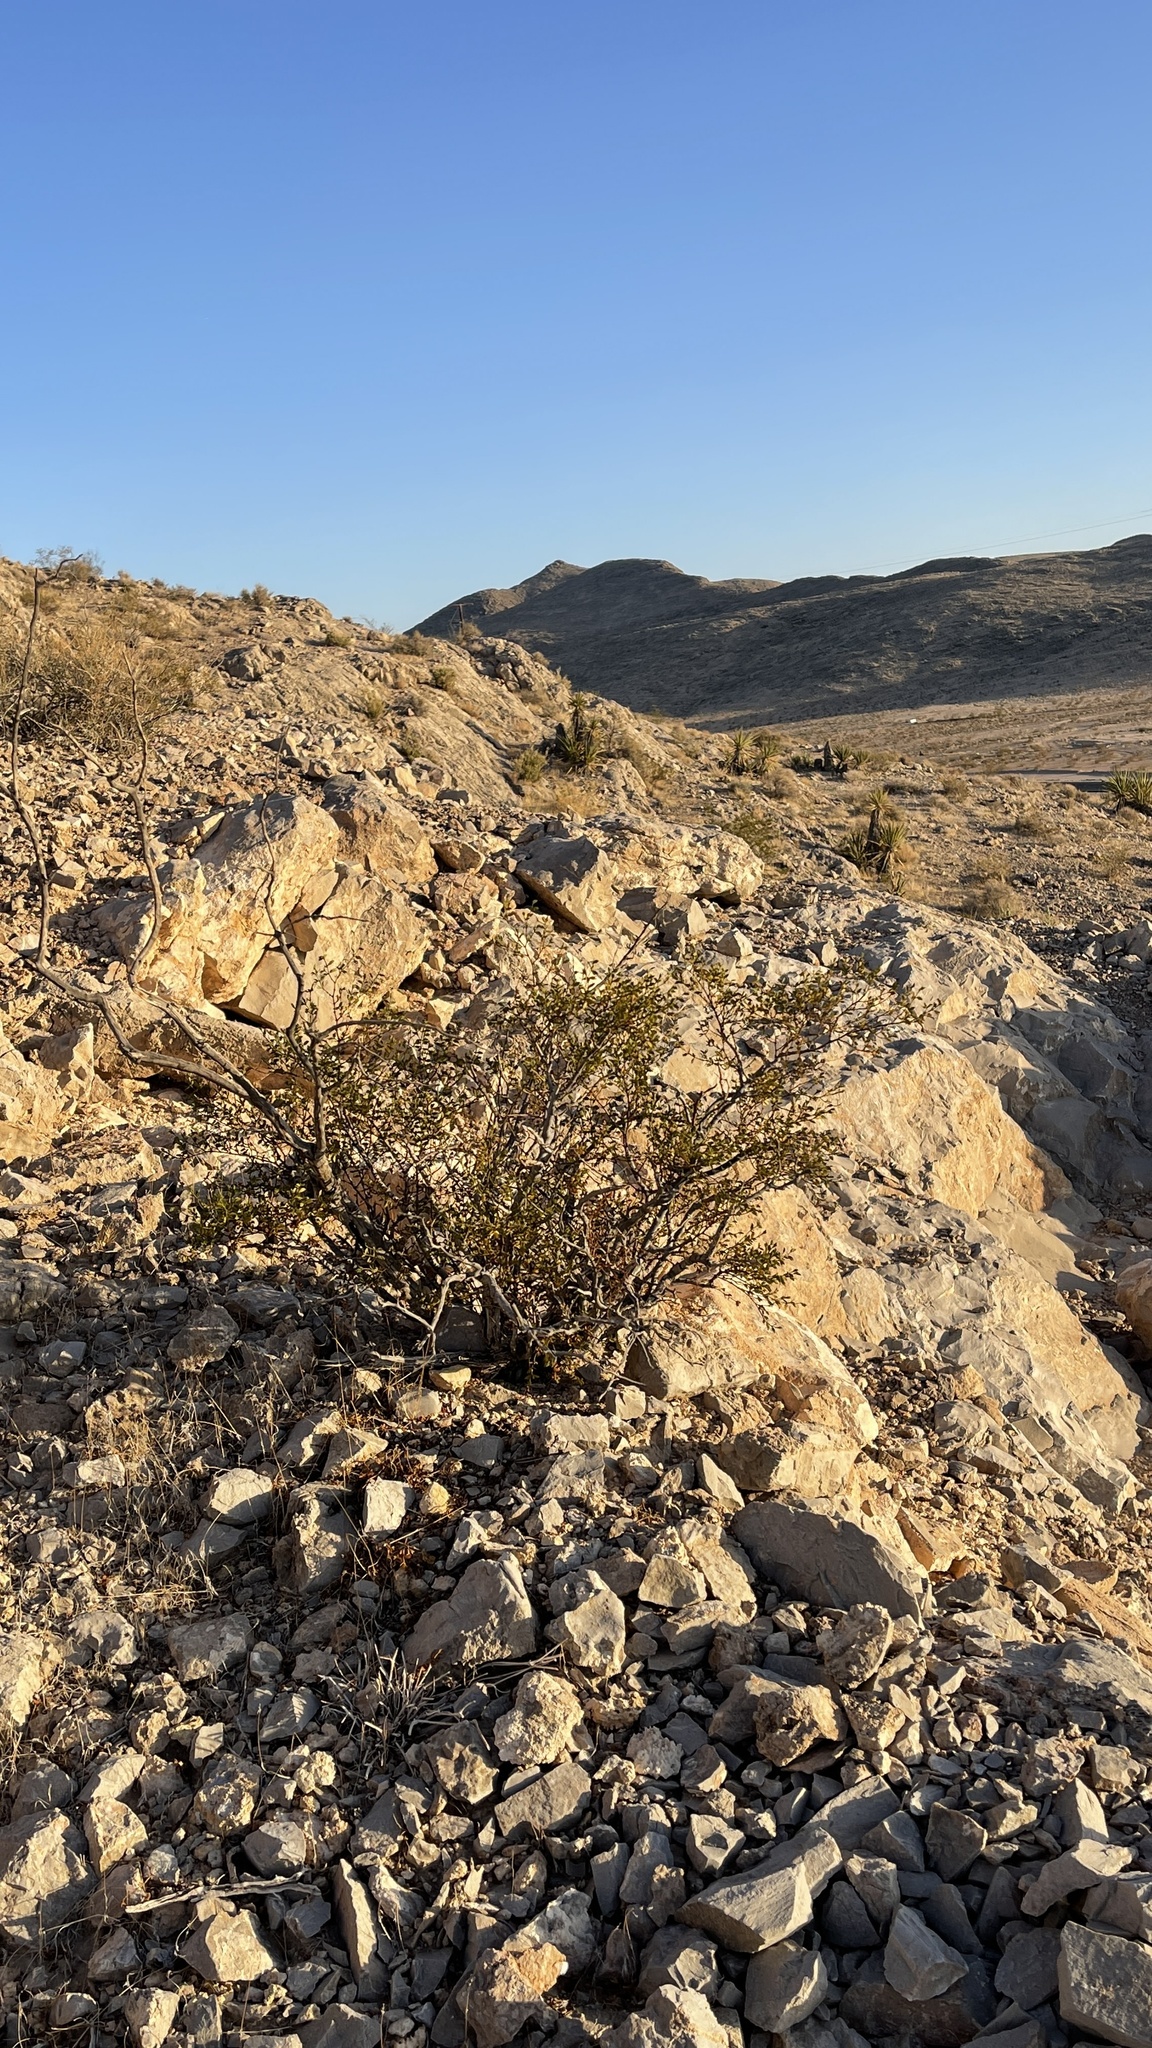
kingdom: Plantae
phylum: Tracheophyta
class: Magnoliopsida
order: Zygophyllales
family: Zygophyllaceae
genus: Larrea
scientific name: Larrea tridentata
